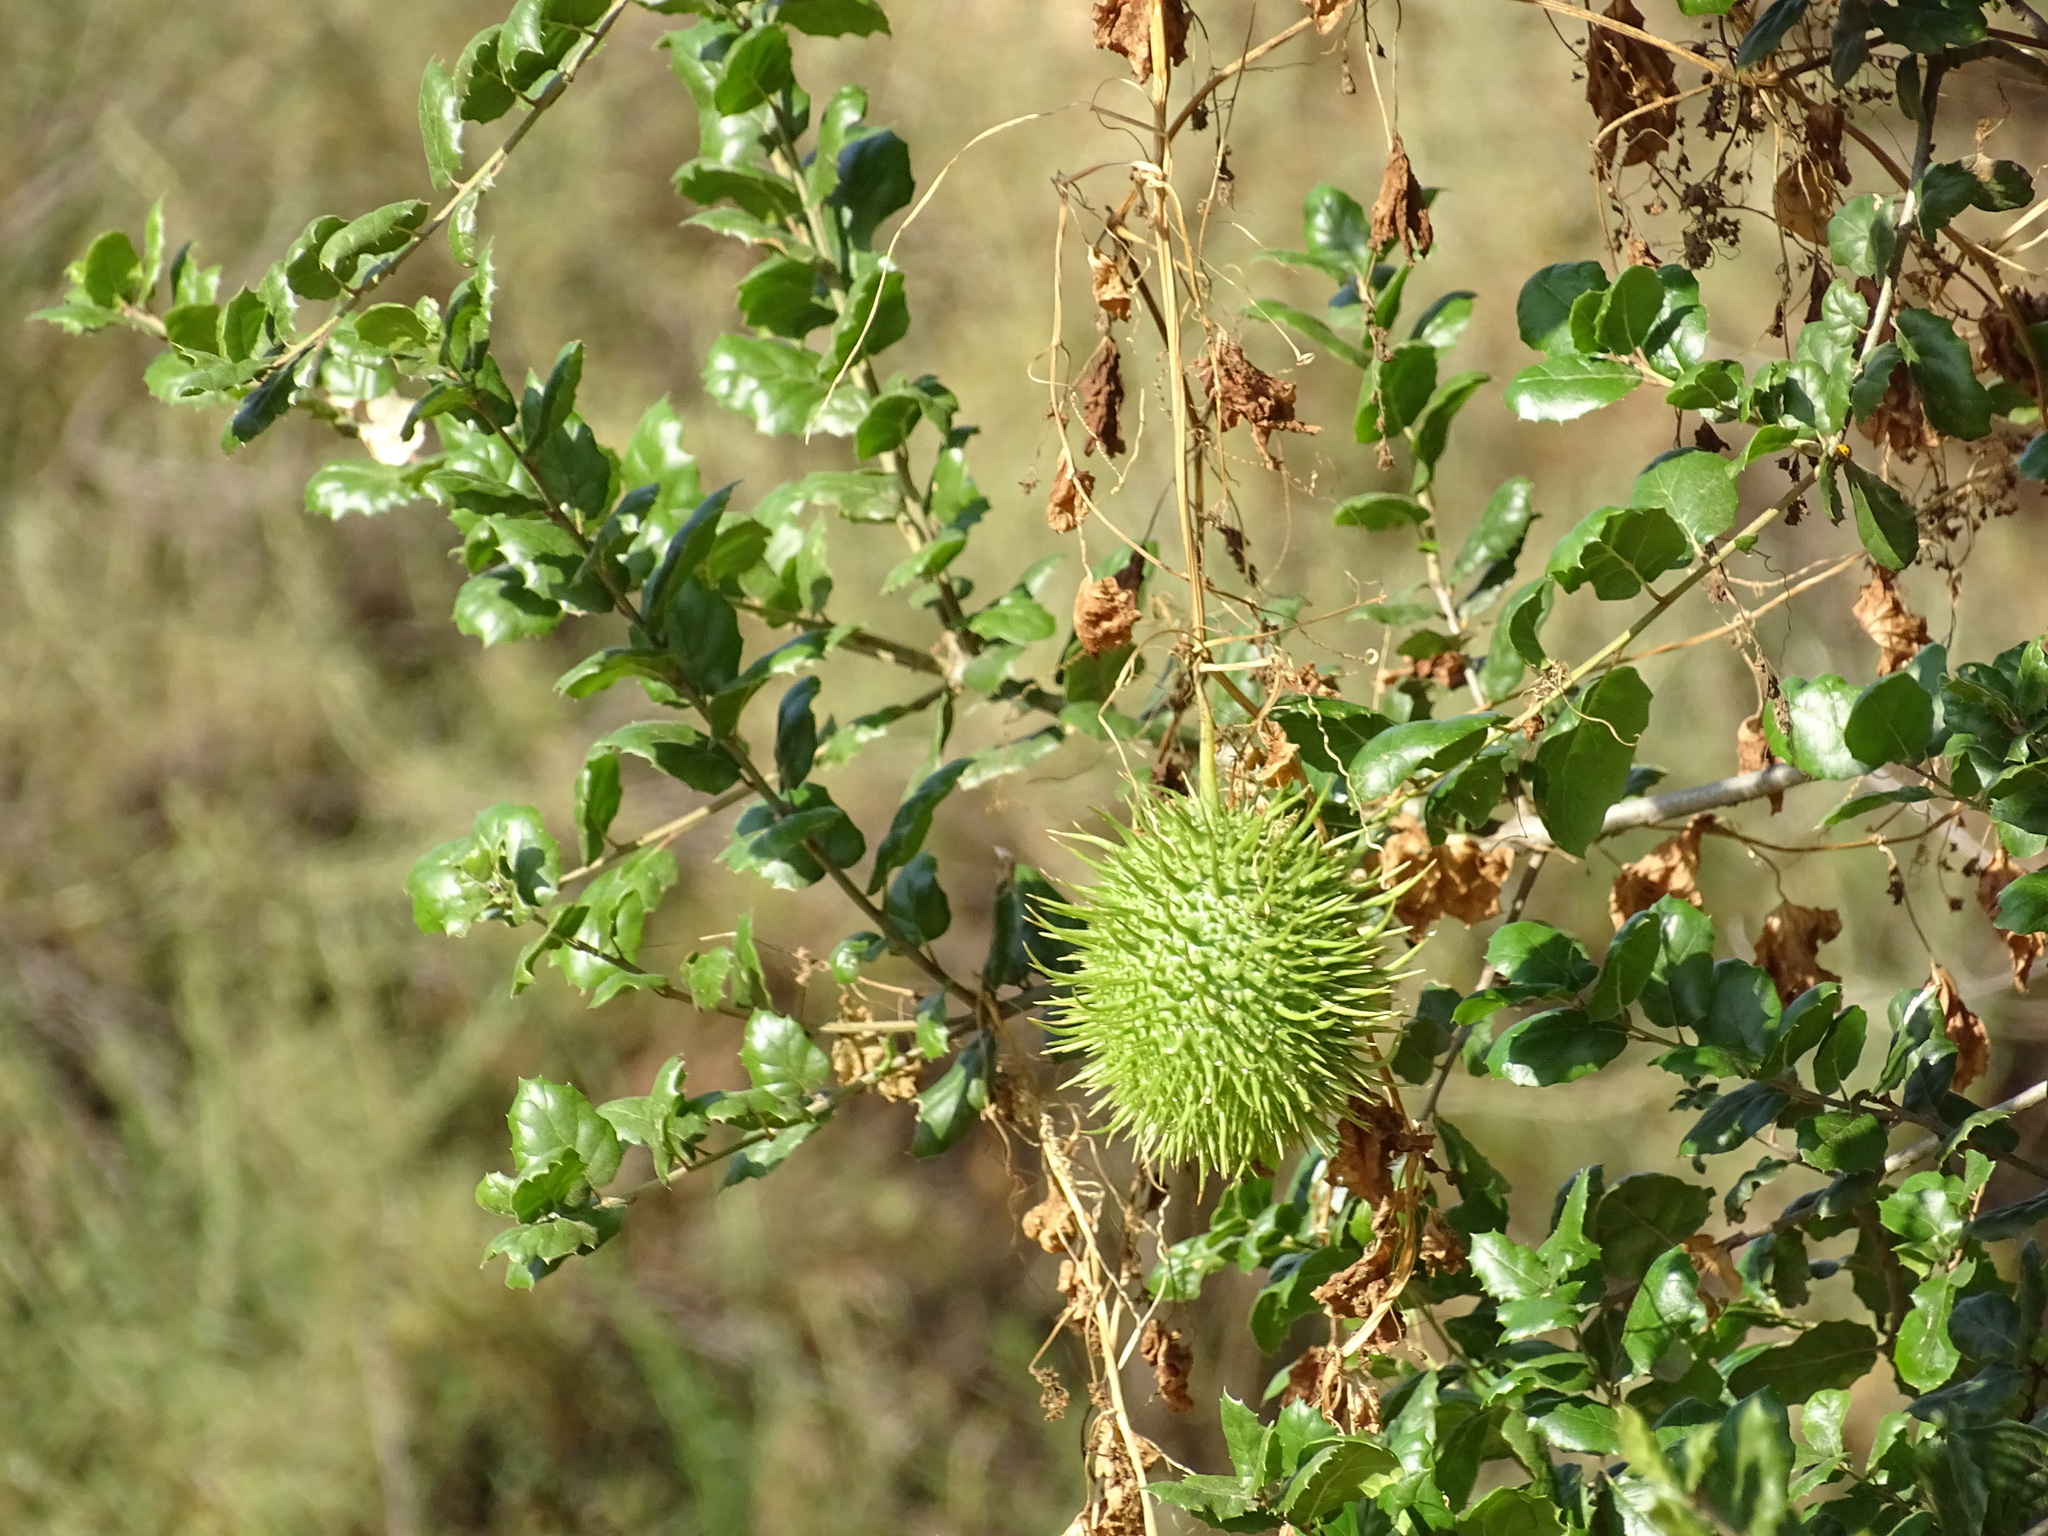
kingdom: Plantae
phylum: Tracheophyta
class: Magnoliopsida
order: Cucurbitales
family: Cucurbitaceae
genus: Marah
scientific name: Marah macrocarpa
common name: Cucamonga manroot
